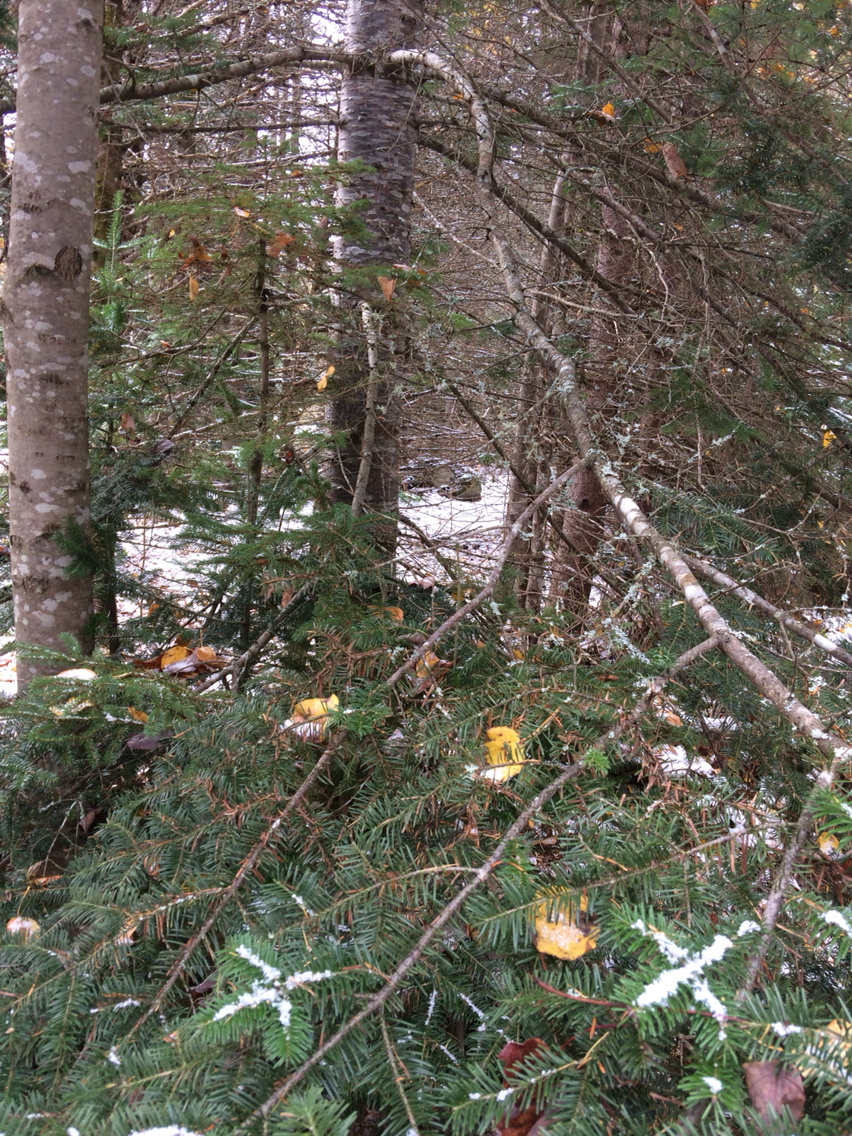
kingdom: Plantae
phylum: Tracheophyta
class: Pinopsida
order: Pinales
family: Pinaceae
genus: Abies
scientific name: Abies balsamea
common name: Balsam fir
